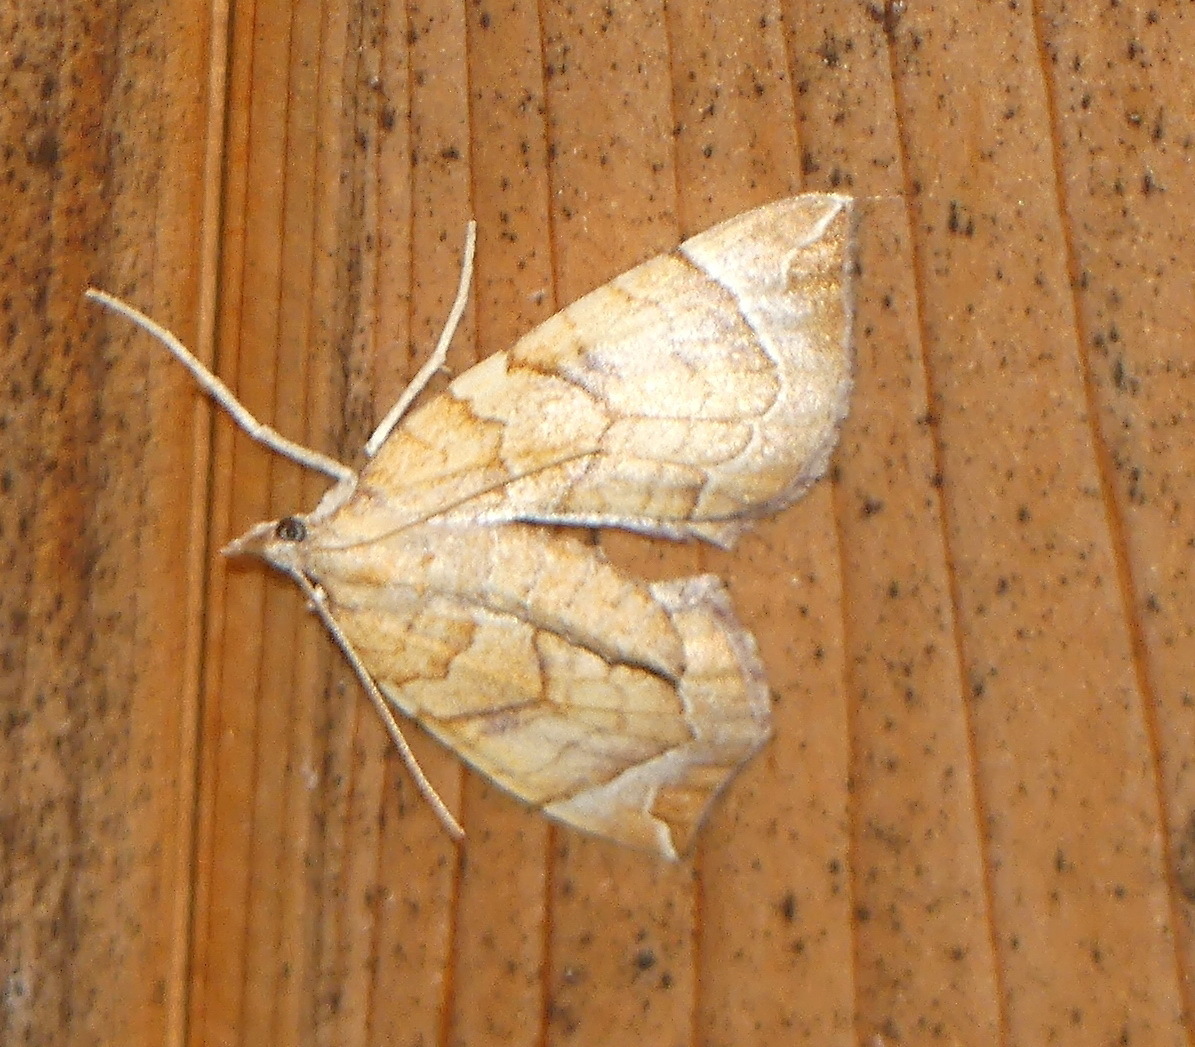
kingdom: Animalia
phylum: Arthropoda
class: Insecta
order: Lepidoptera
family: Geometridae
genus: Eulithis
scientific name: Eulithis testata
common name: Chevron
